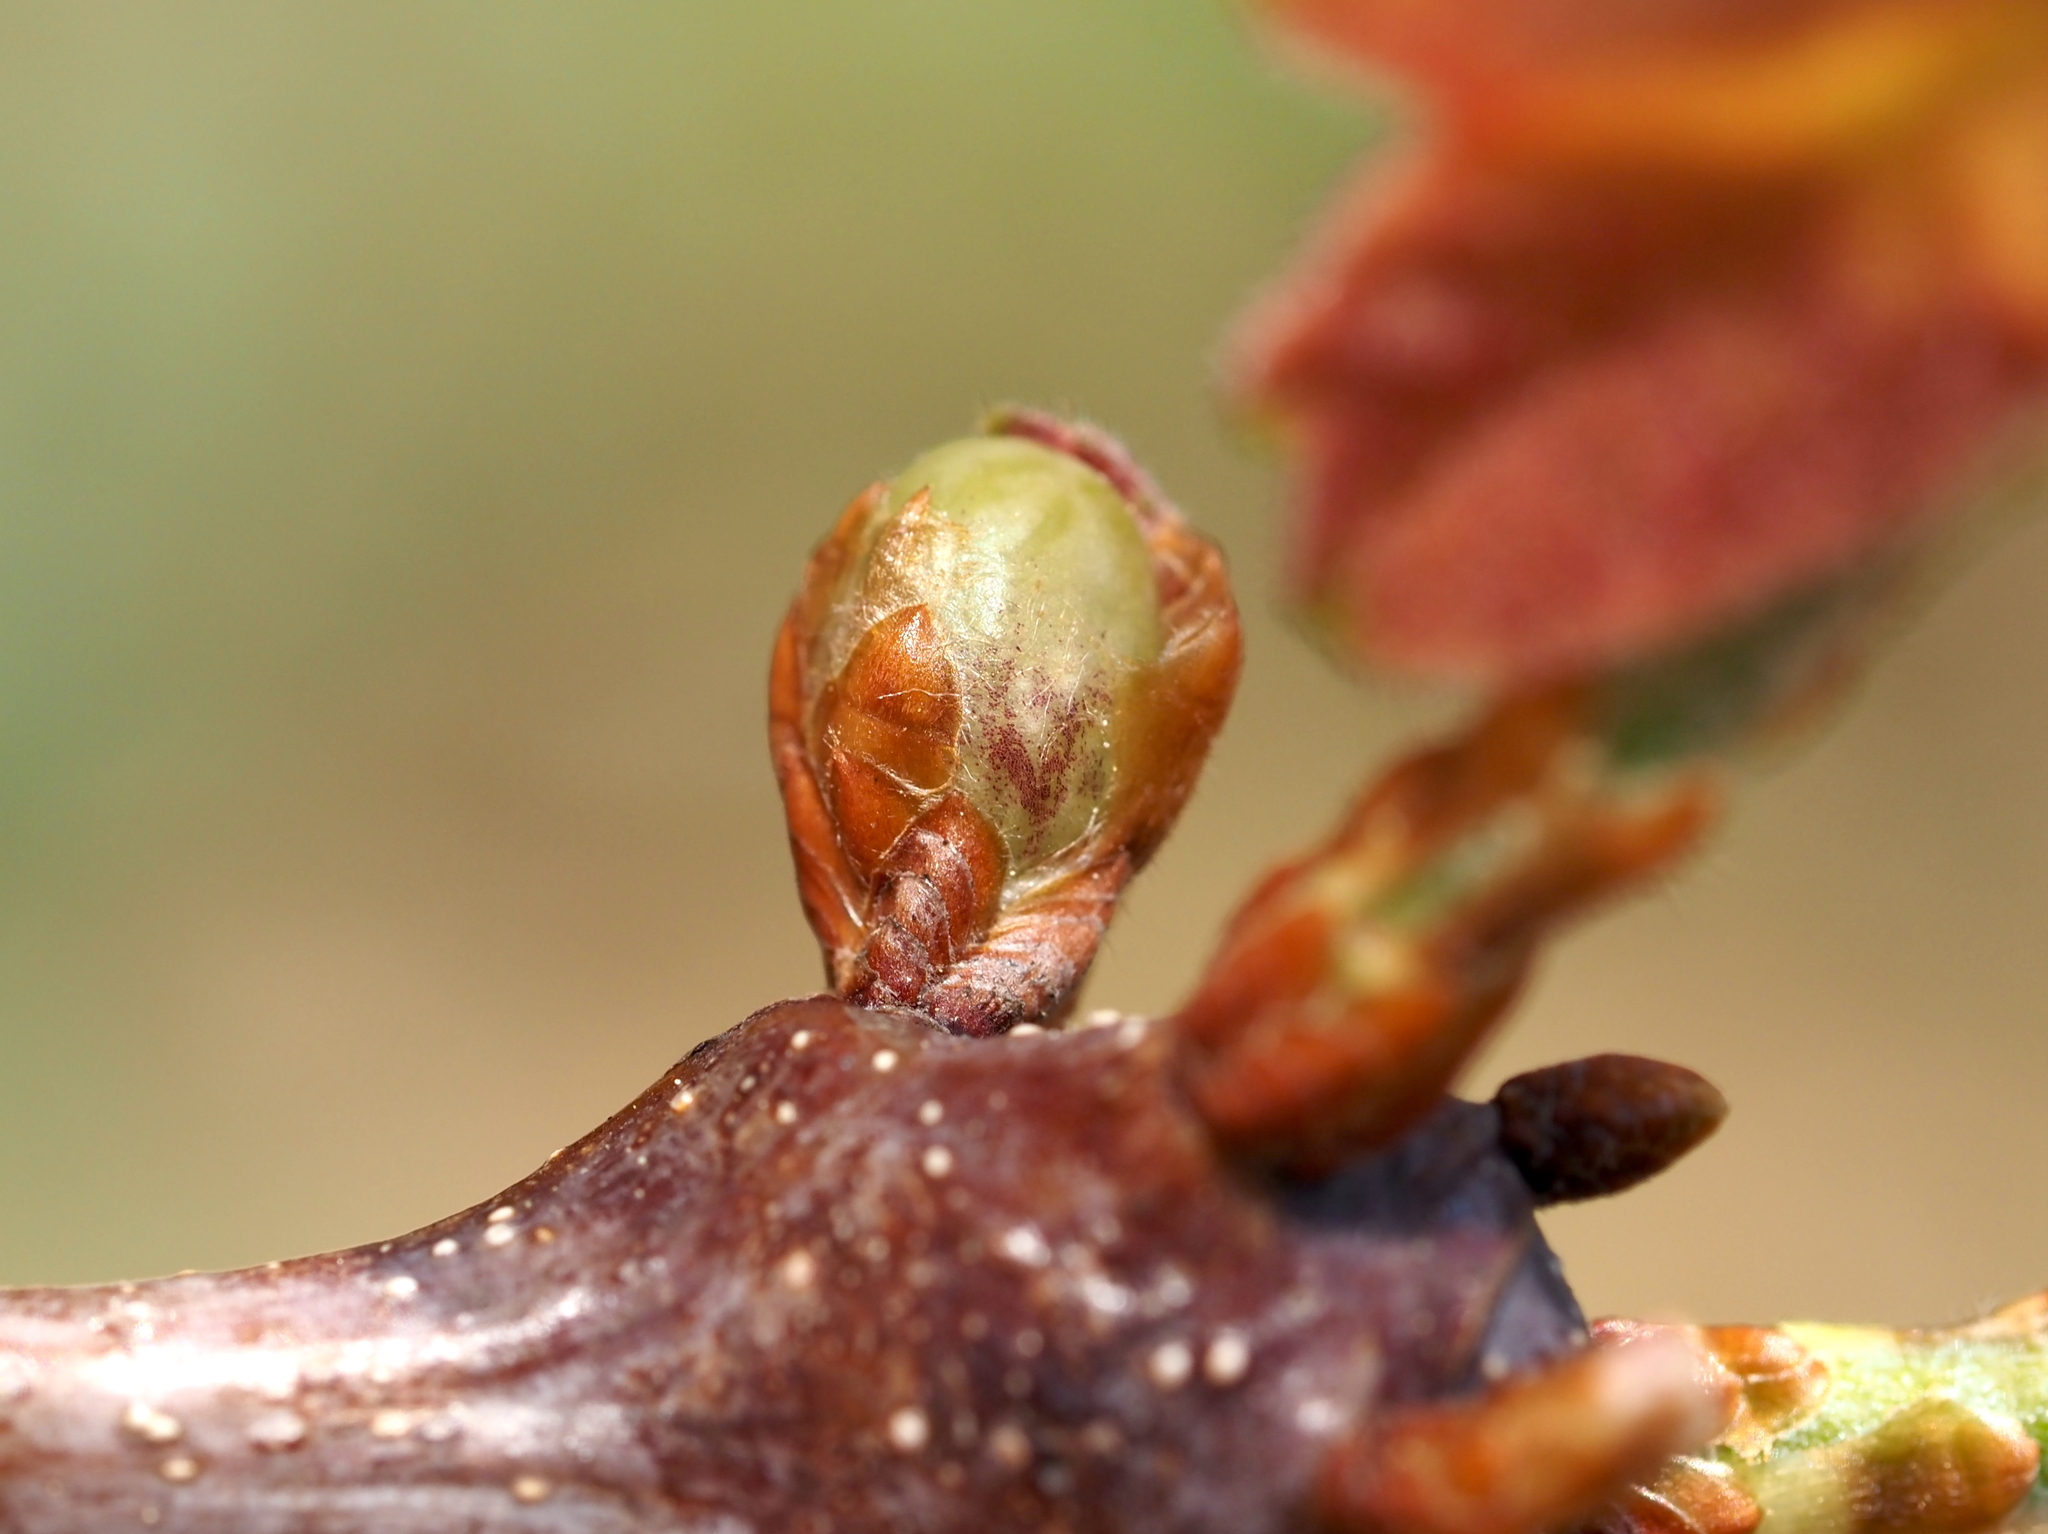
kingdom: Animalia
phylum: Arthropoda
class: Insecta
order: Hymenoptera
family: Cynipidae
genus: Neuroterus
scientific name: Neuroterus
